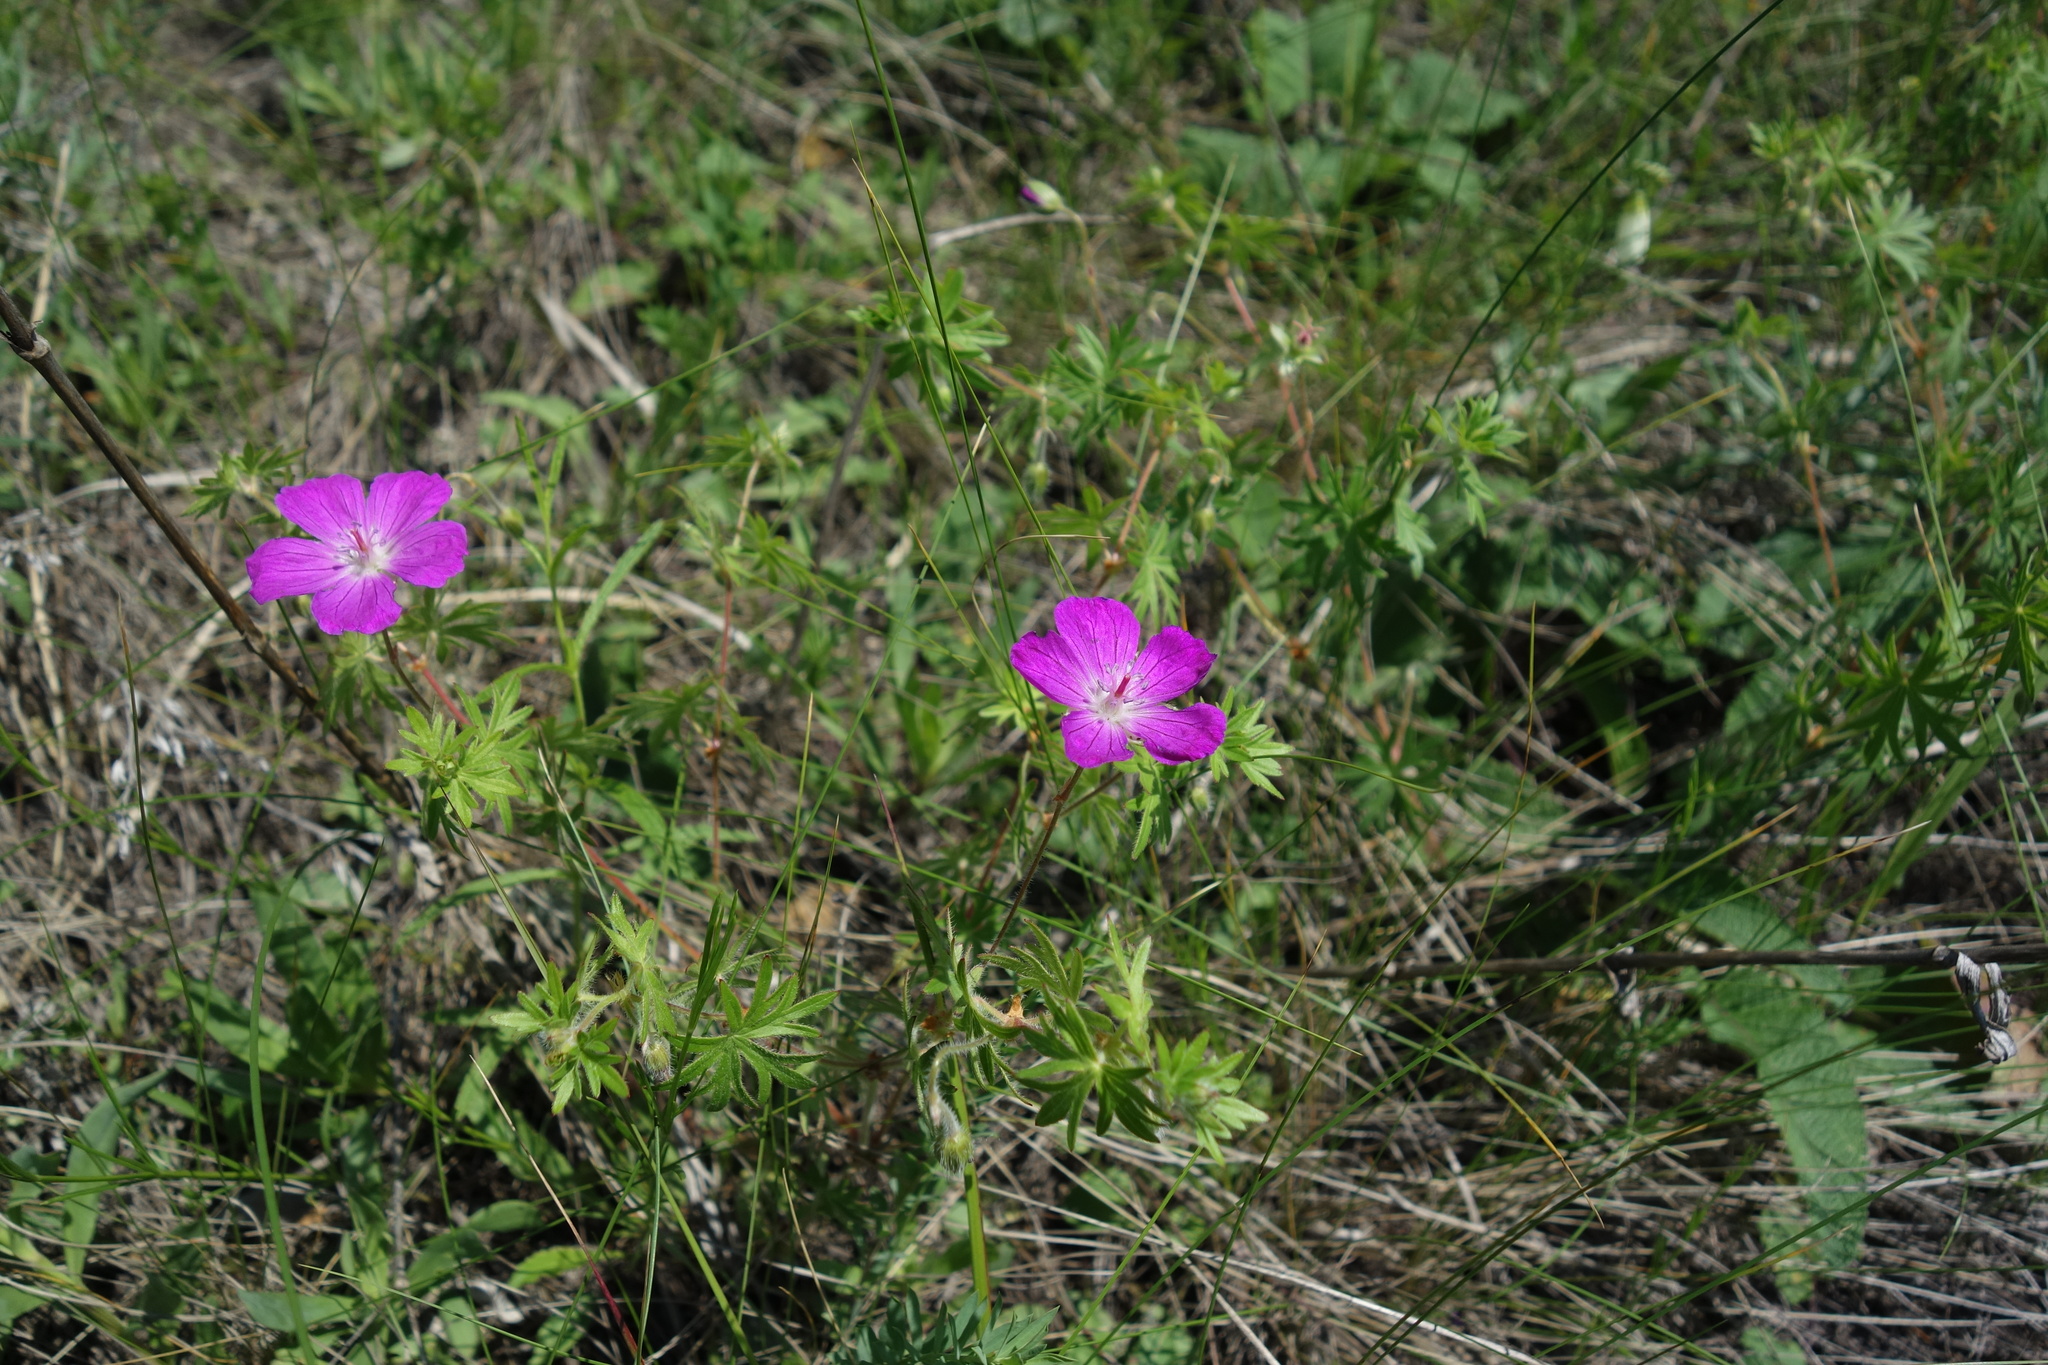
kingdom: Plantae
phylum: Tracheophyta
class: Magnoliopsida
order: Geraniales
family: Geraniaceae
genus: Geranium
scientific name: Geranium sanguineum
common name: Bloody crane's-bill
